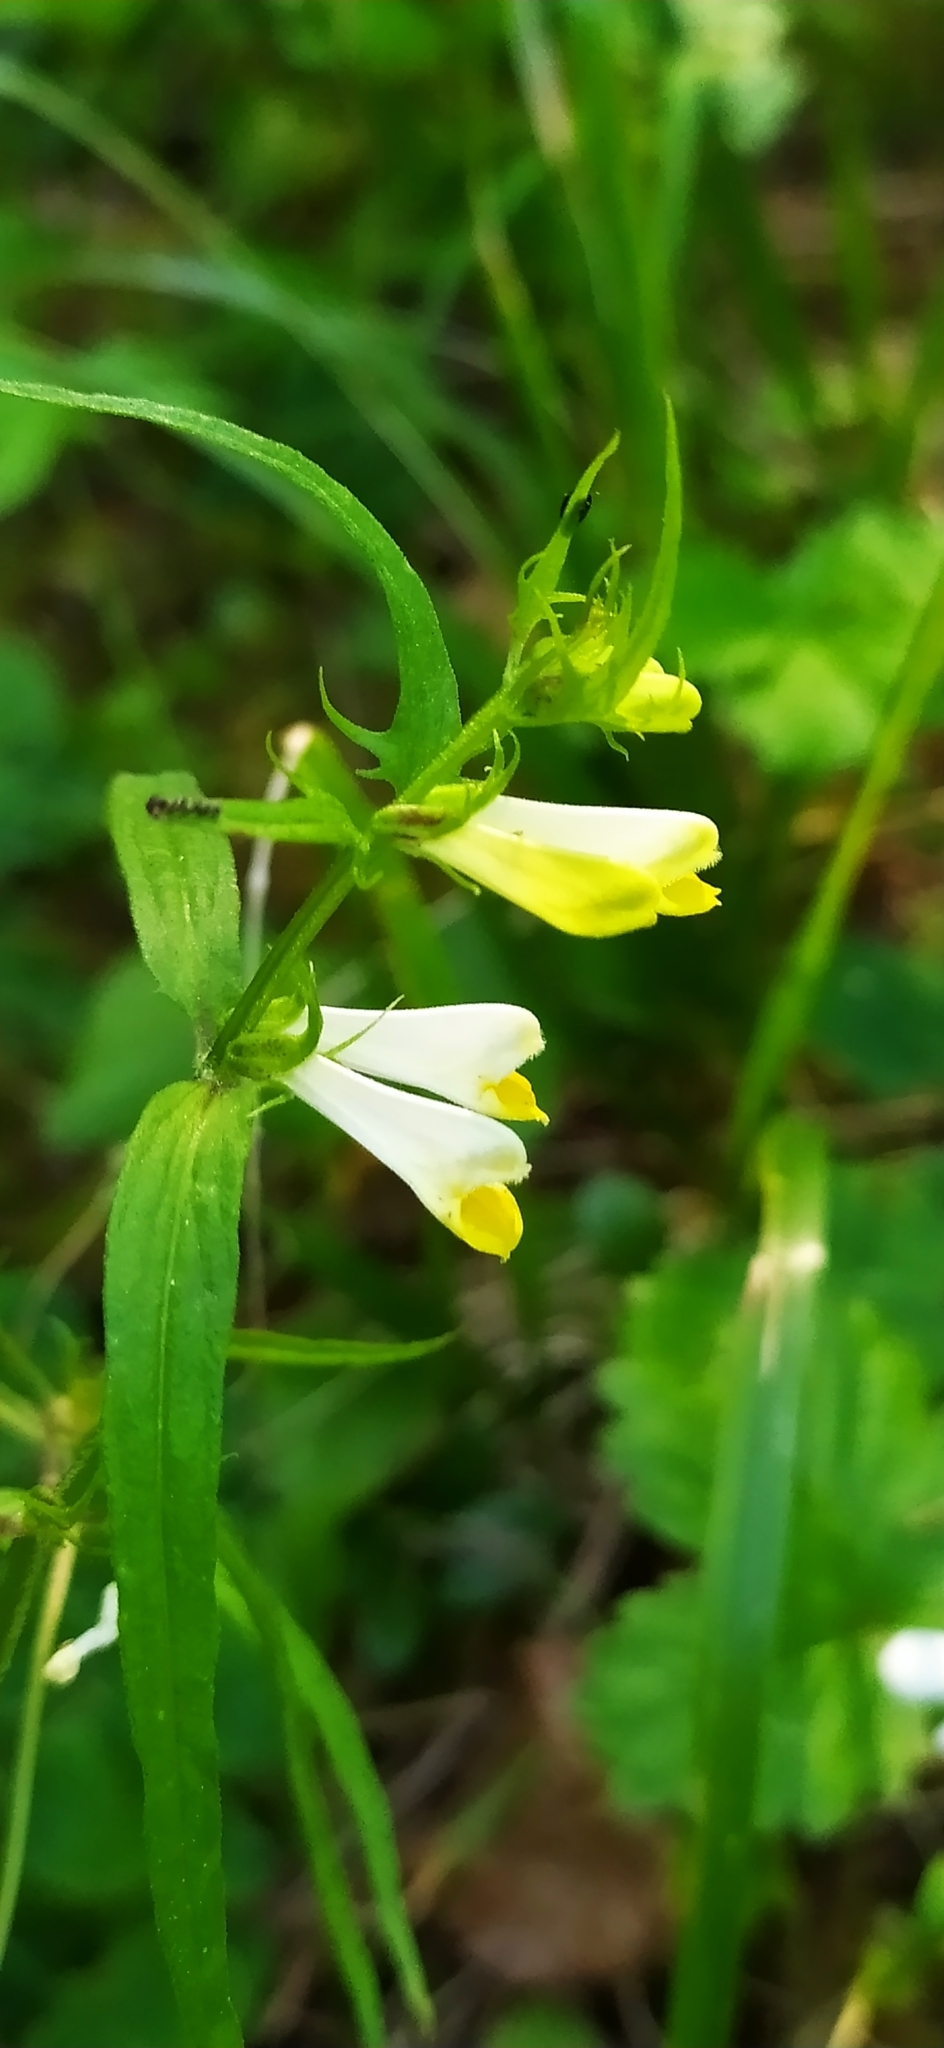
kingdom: Plantae
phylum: Tracheophyta
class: Magnoliopsida
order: Lamiales
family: Orobanchaceae
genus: Melampyrum
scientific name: Melampyrum pratense
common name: Common cow-wheat
